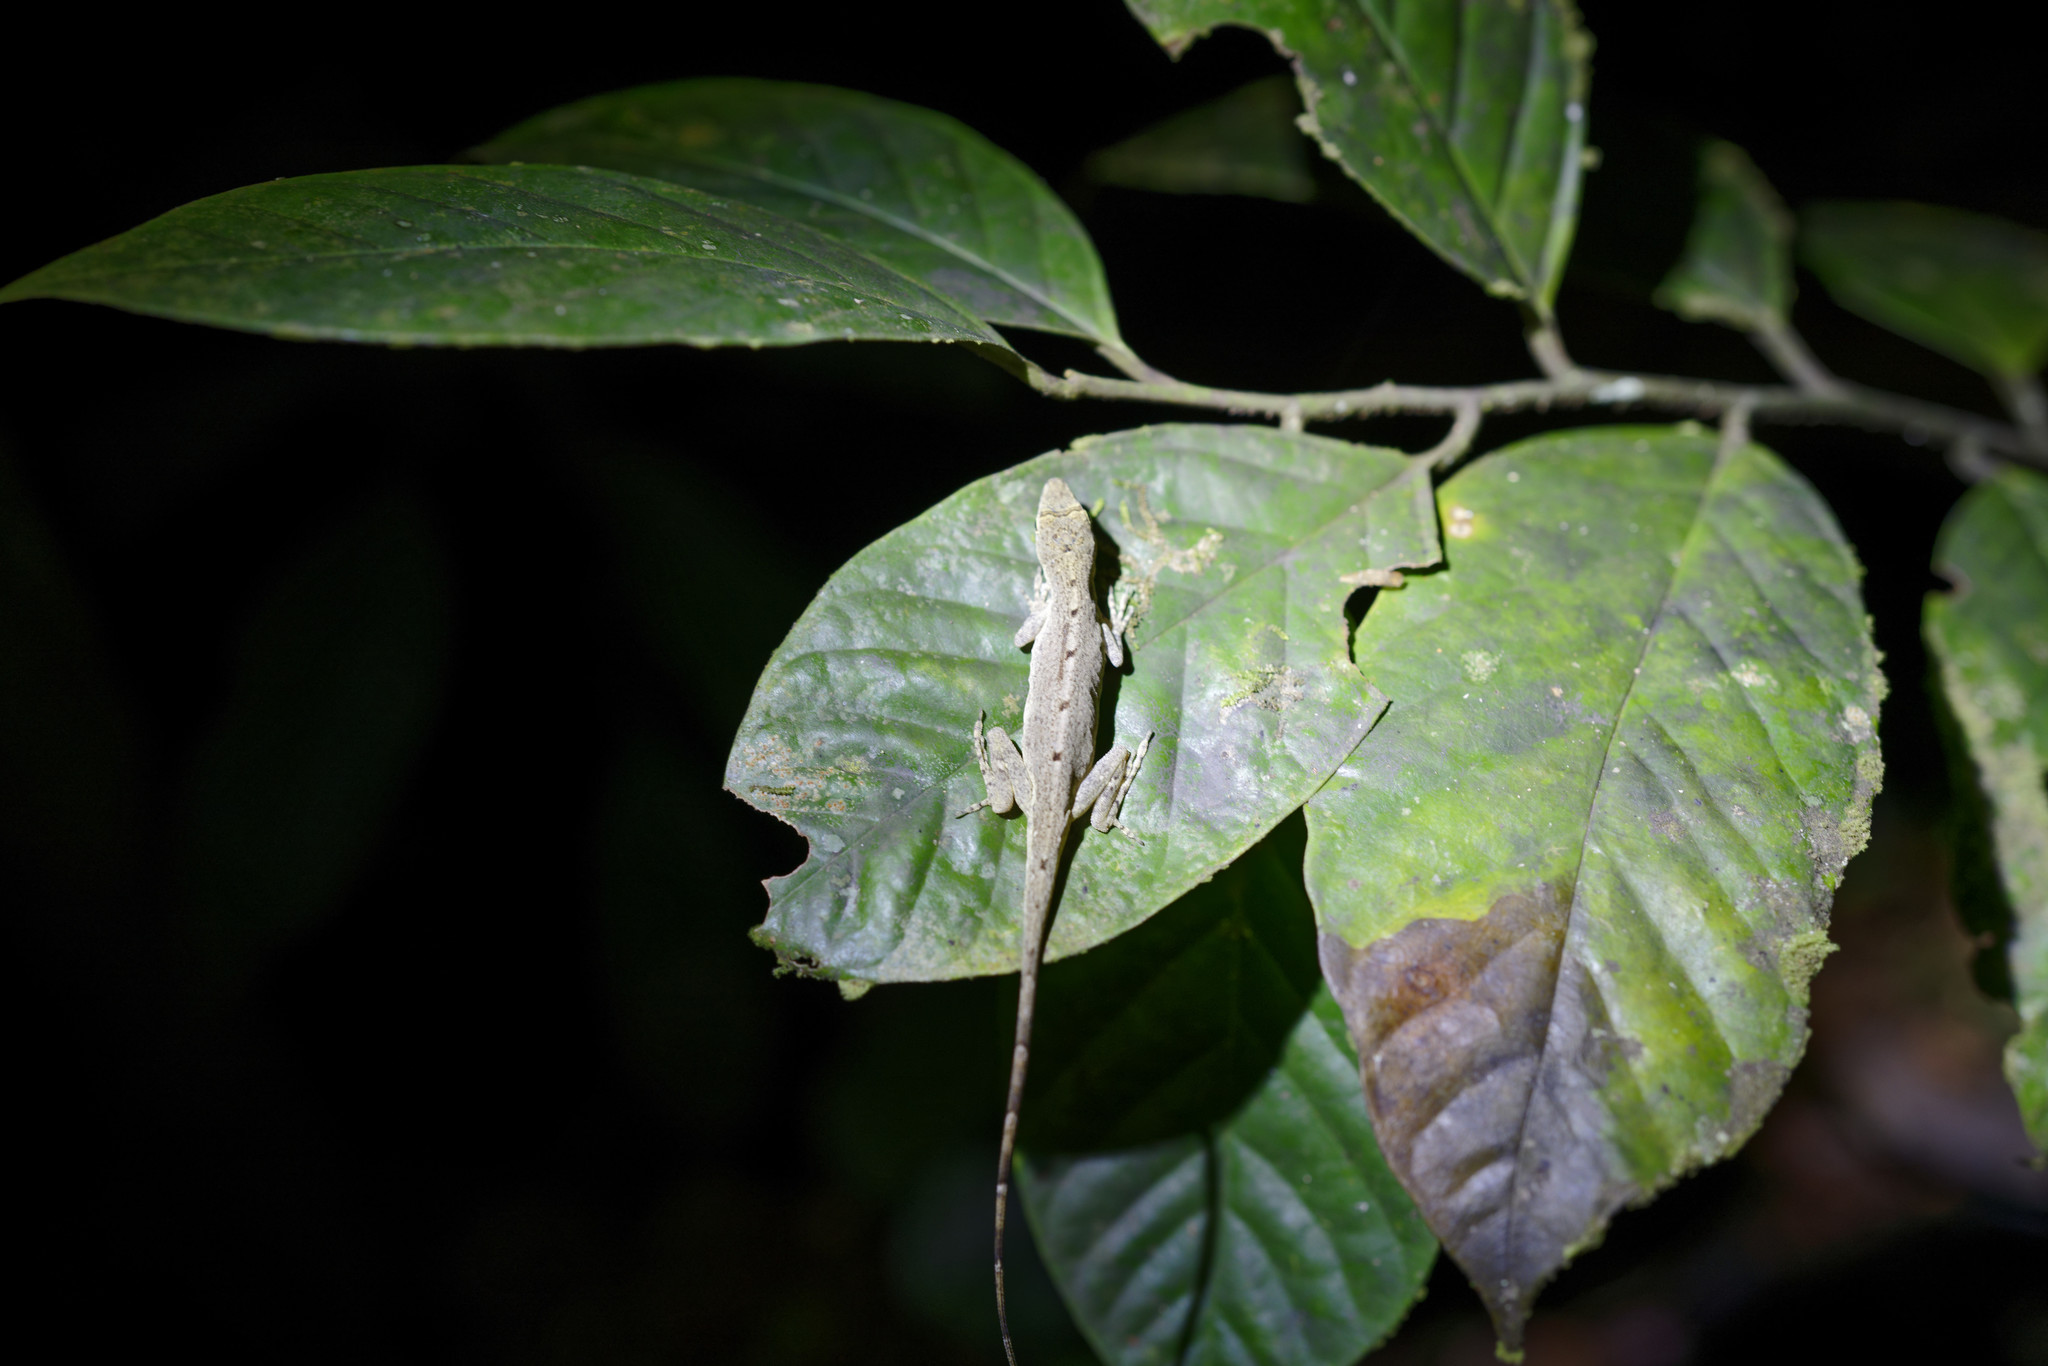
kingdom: Animalia
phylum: Chordata
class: Squamata
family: Dactyloidae
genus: Anolis
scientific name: Anolis fuscoauratus
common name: Brown-eared anole
